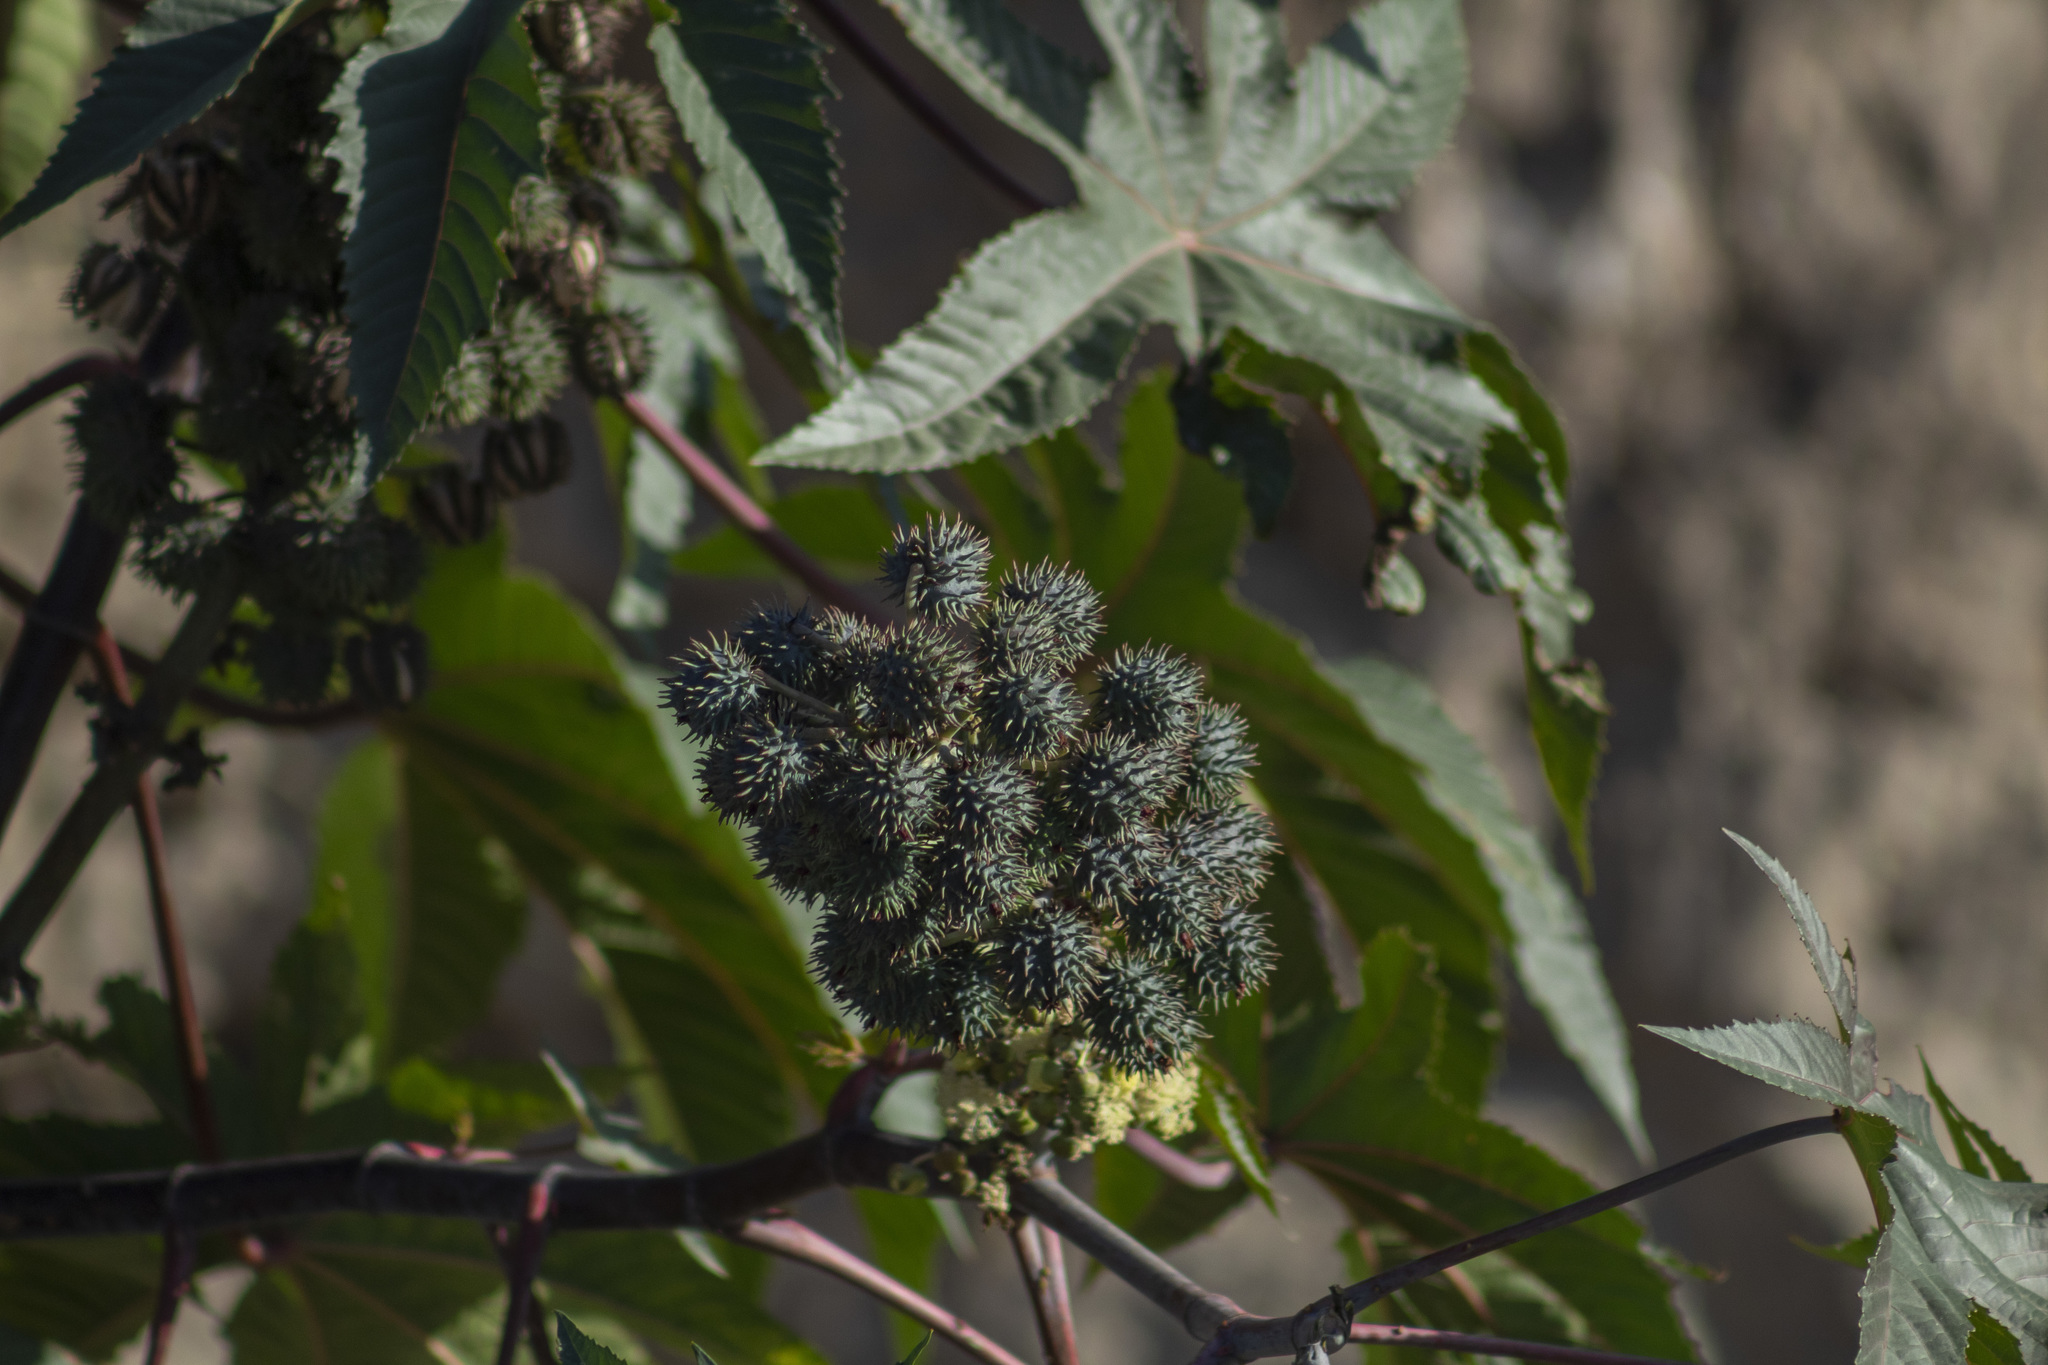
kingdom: Plantae
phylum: Tracheophyta
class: Magnoliopsida
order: Malpighiales
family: Euphorbiaceae
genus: Ricinus
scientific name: Ricinus communis
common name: Castor-oil-plant
